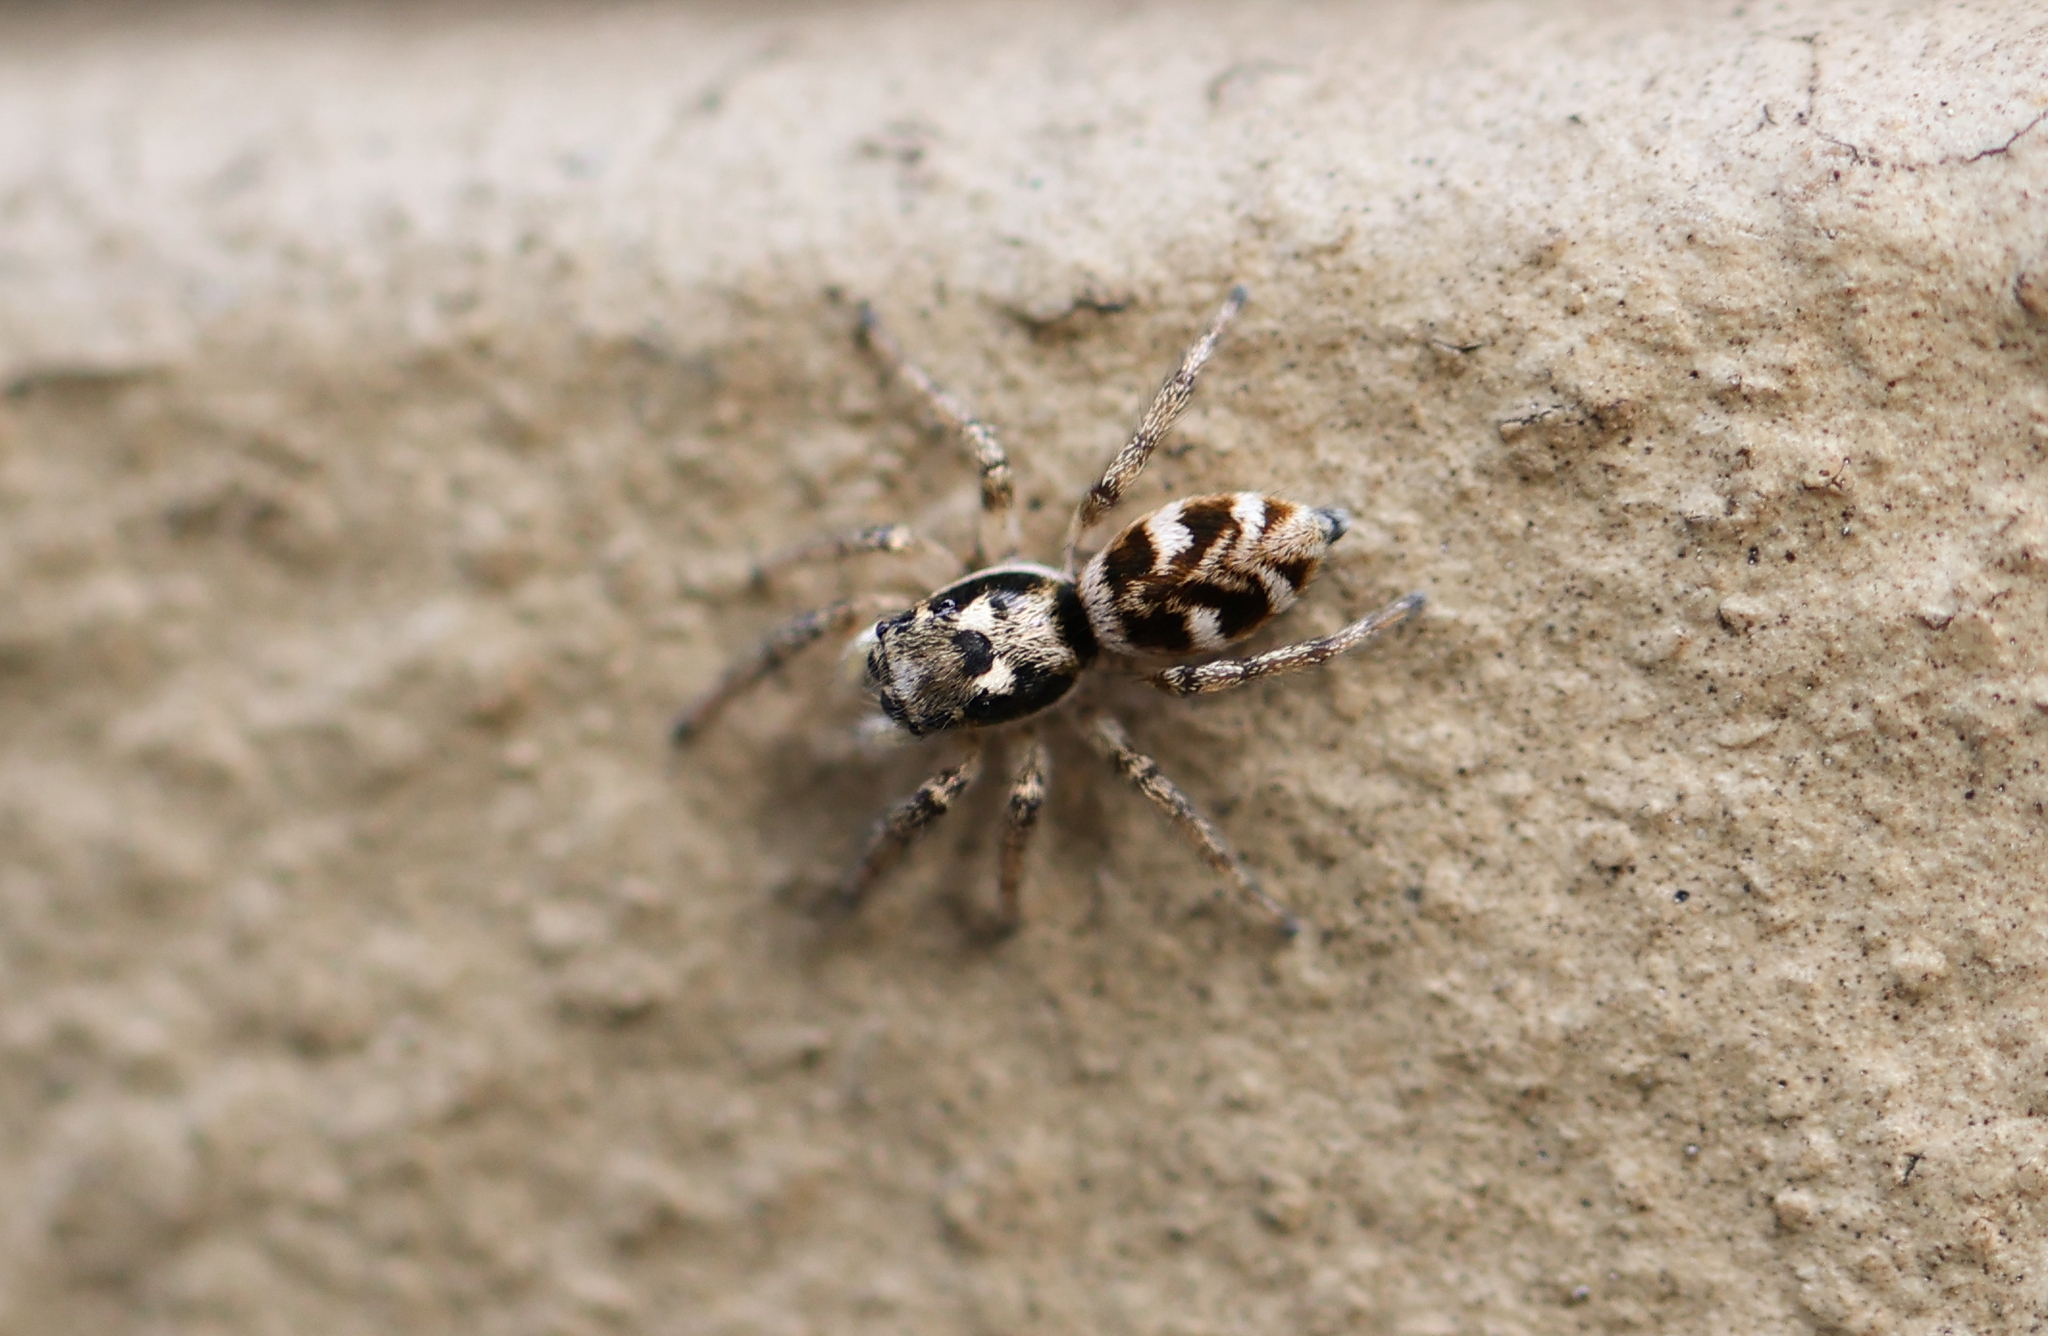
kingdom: Animalia
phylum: Arthropoda
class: Arachnida
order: Araneae
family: Salticidae
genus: Salticus
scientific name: Salticus scenicus
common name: Zebra jumper
